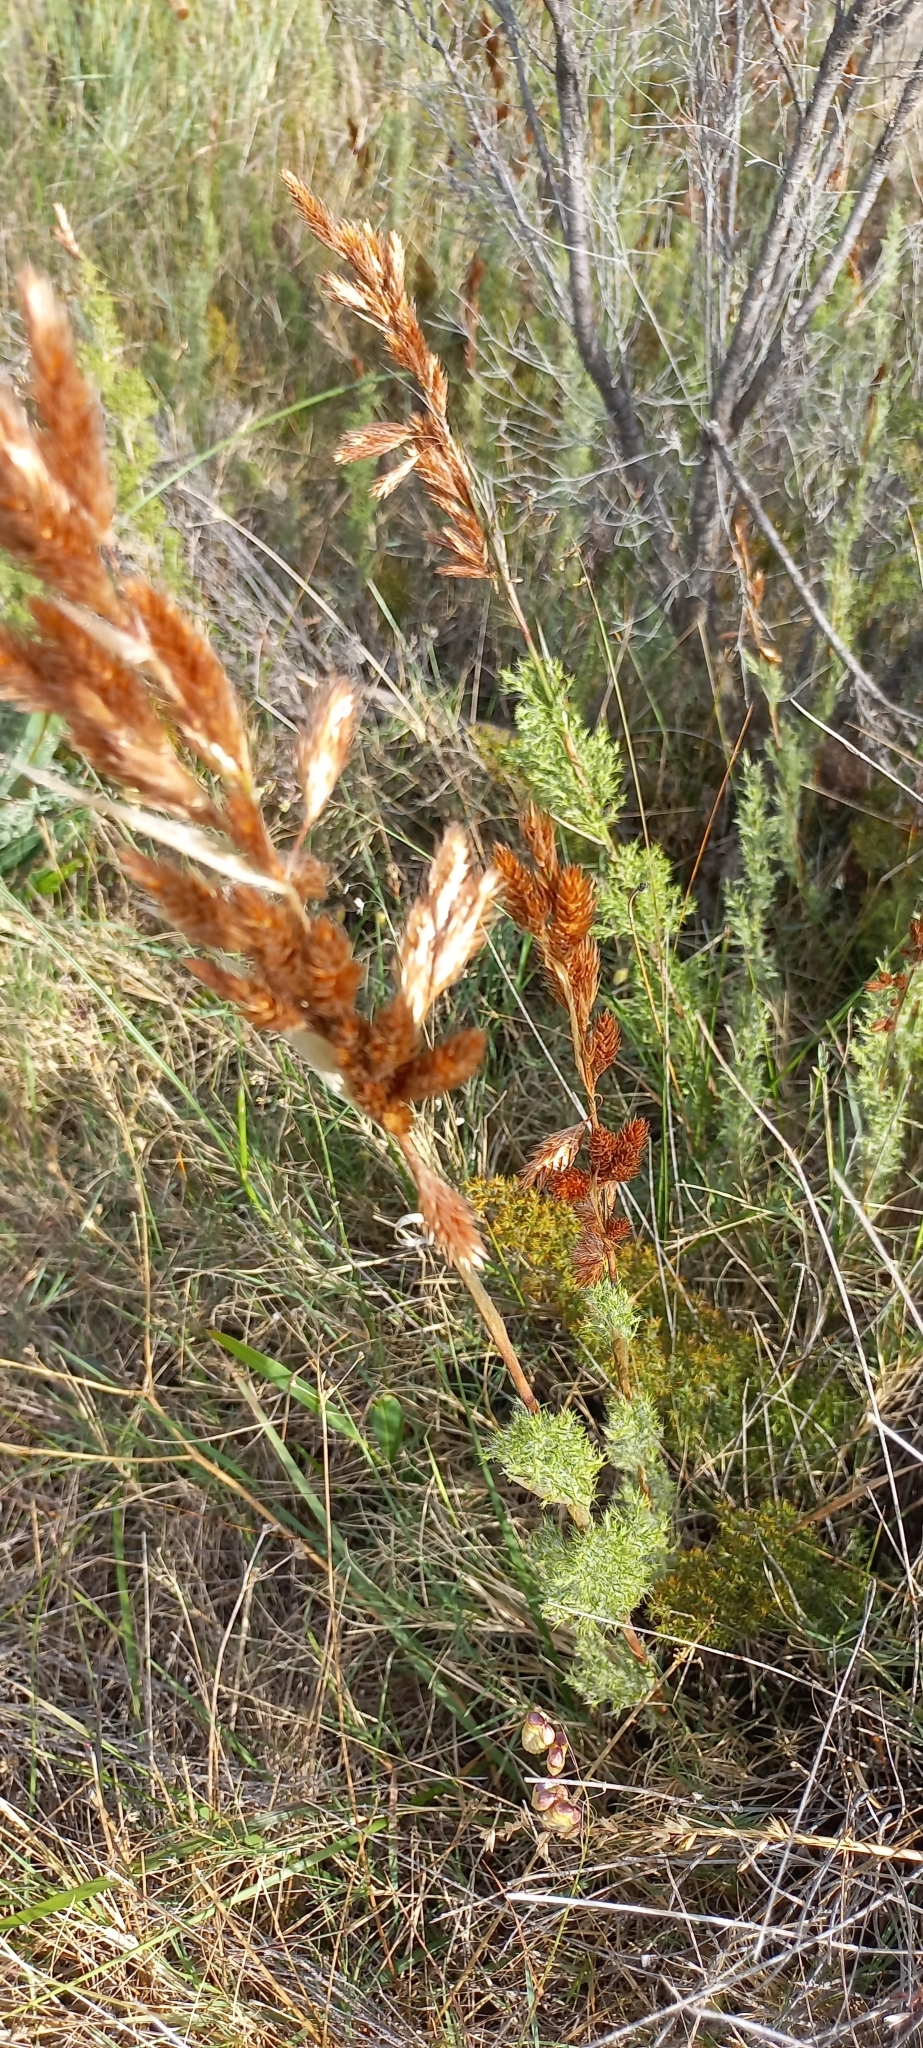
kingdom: Plantae
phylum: Tracheophyta
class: Liliopsida
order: Poales
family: Restionaceae
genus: Thamnochortus
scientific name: Thamnochortus fruticosus
